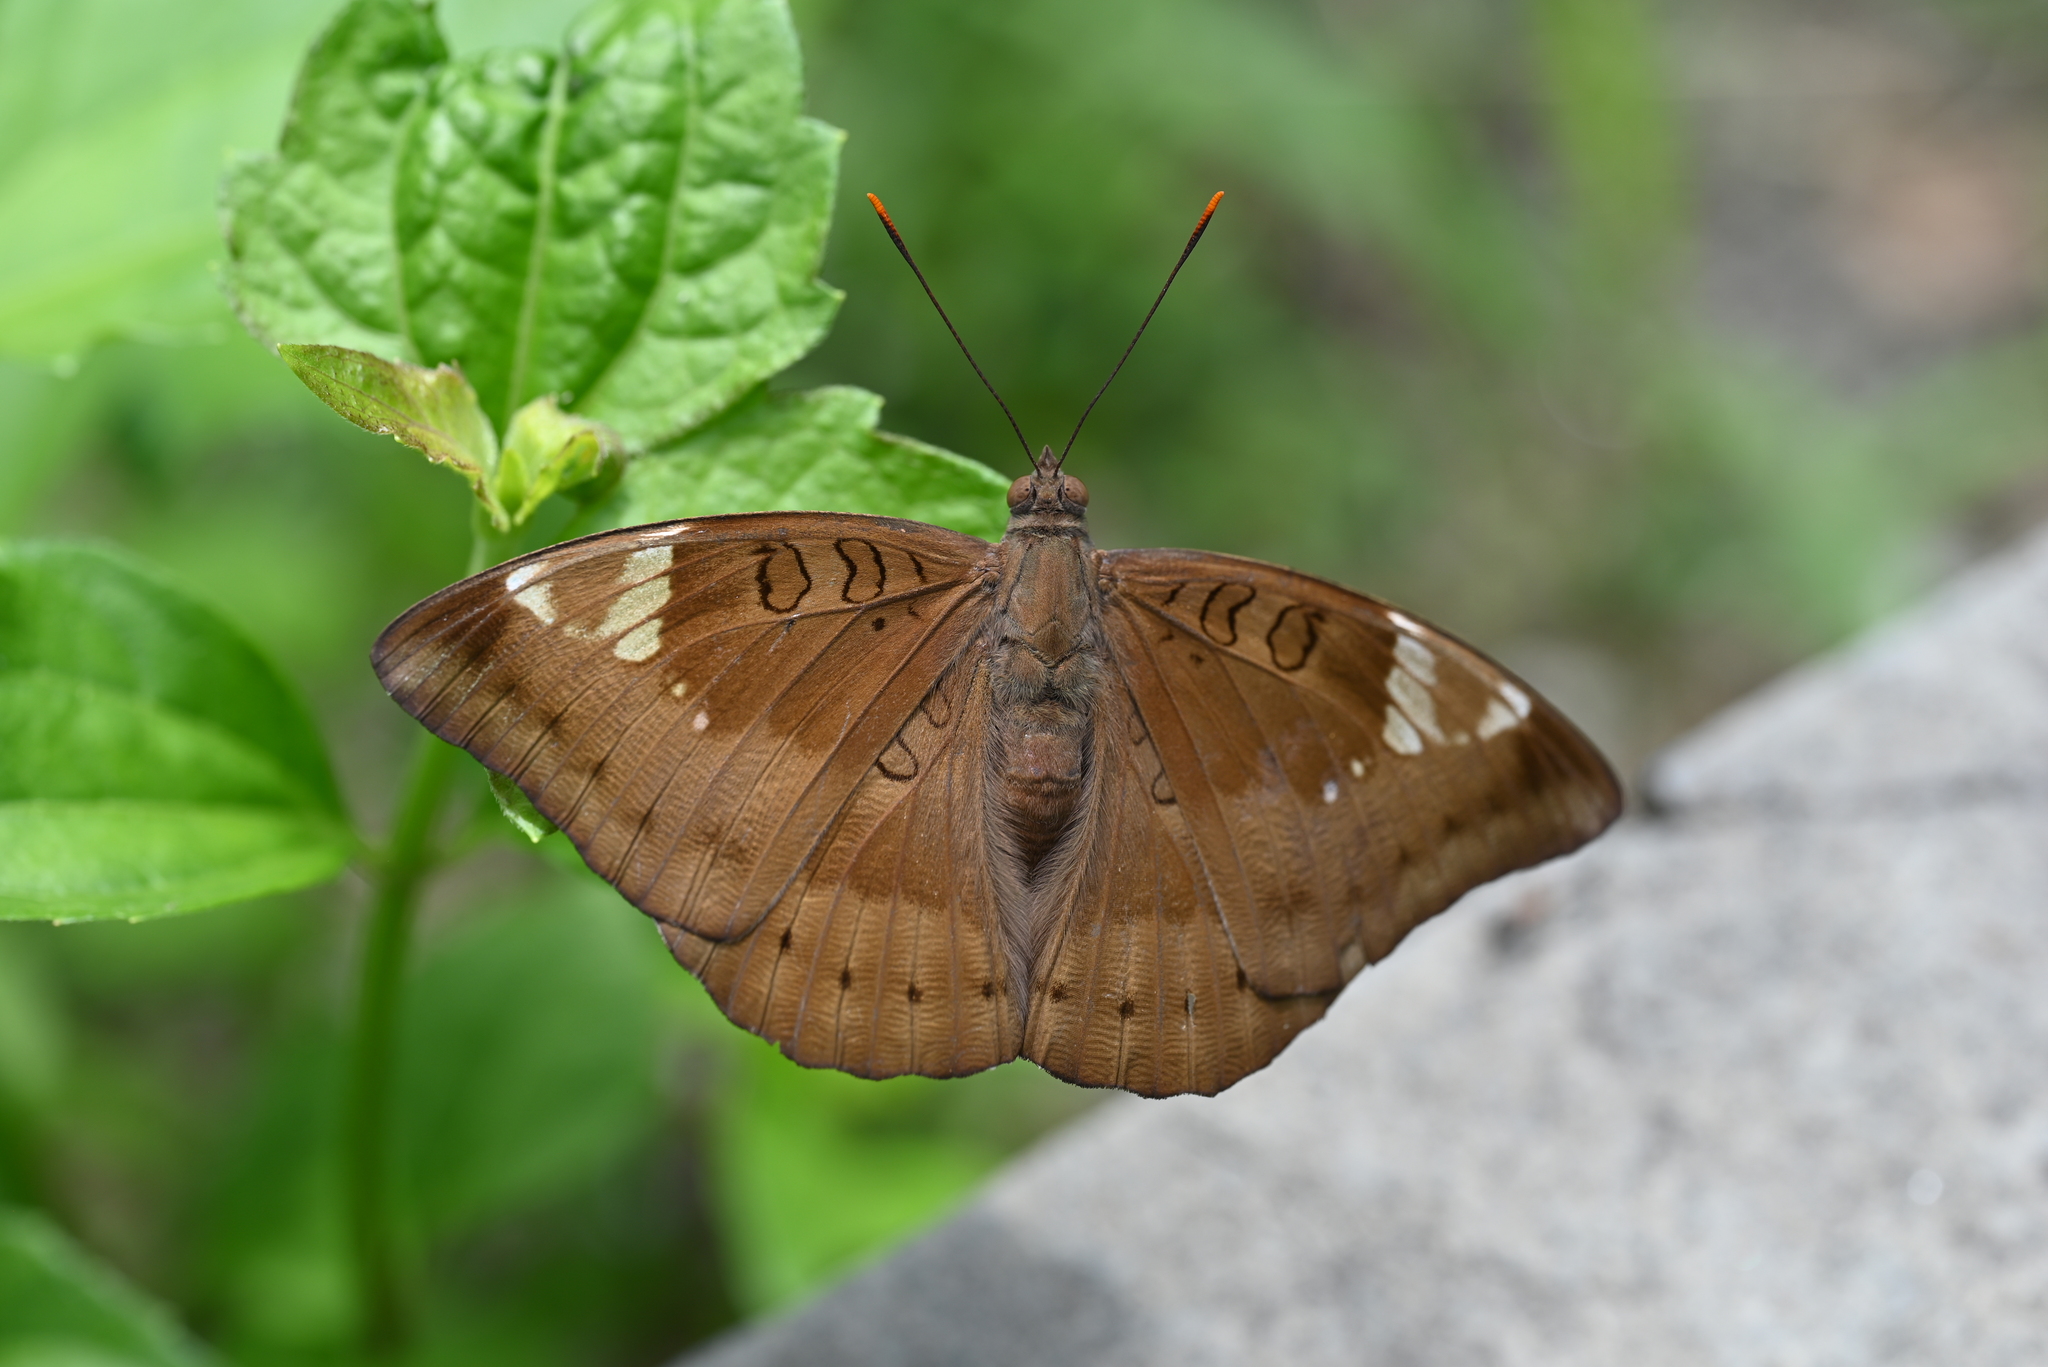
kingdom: Animalia
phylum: Arthropoda
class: Insecta
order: Lepidoptera
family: Nymphalidae
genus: Euthalia
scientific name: Euthalia aconthea
